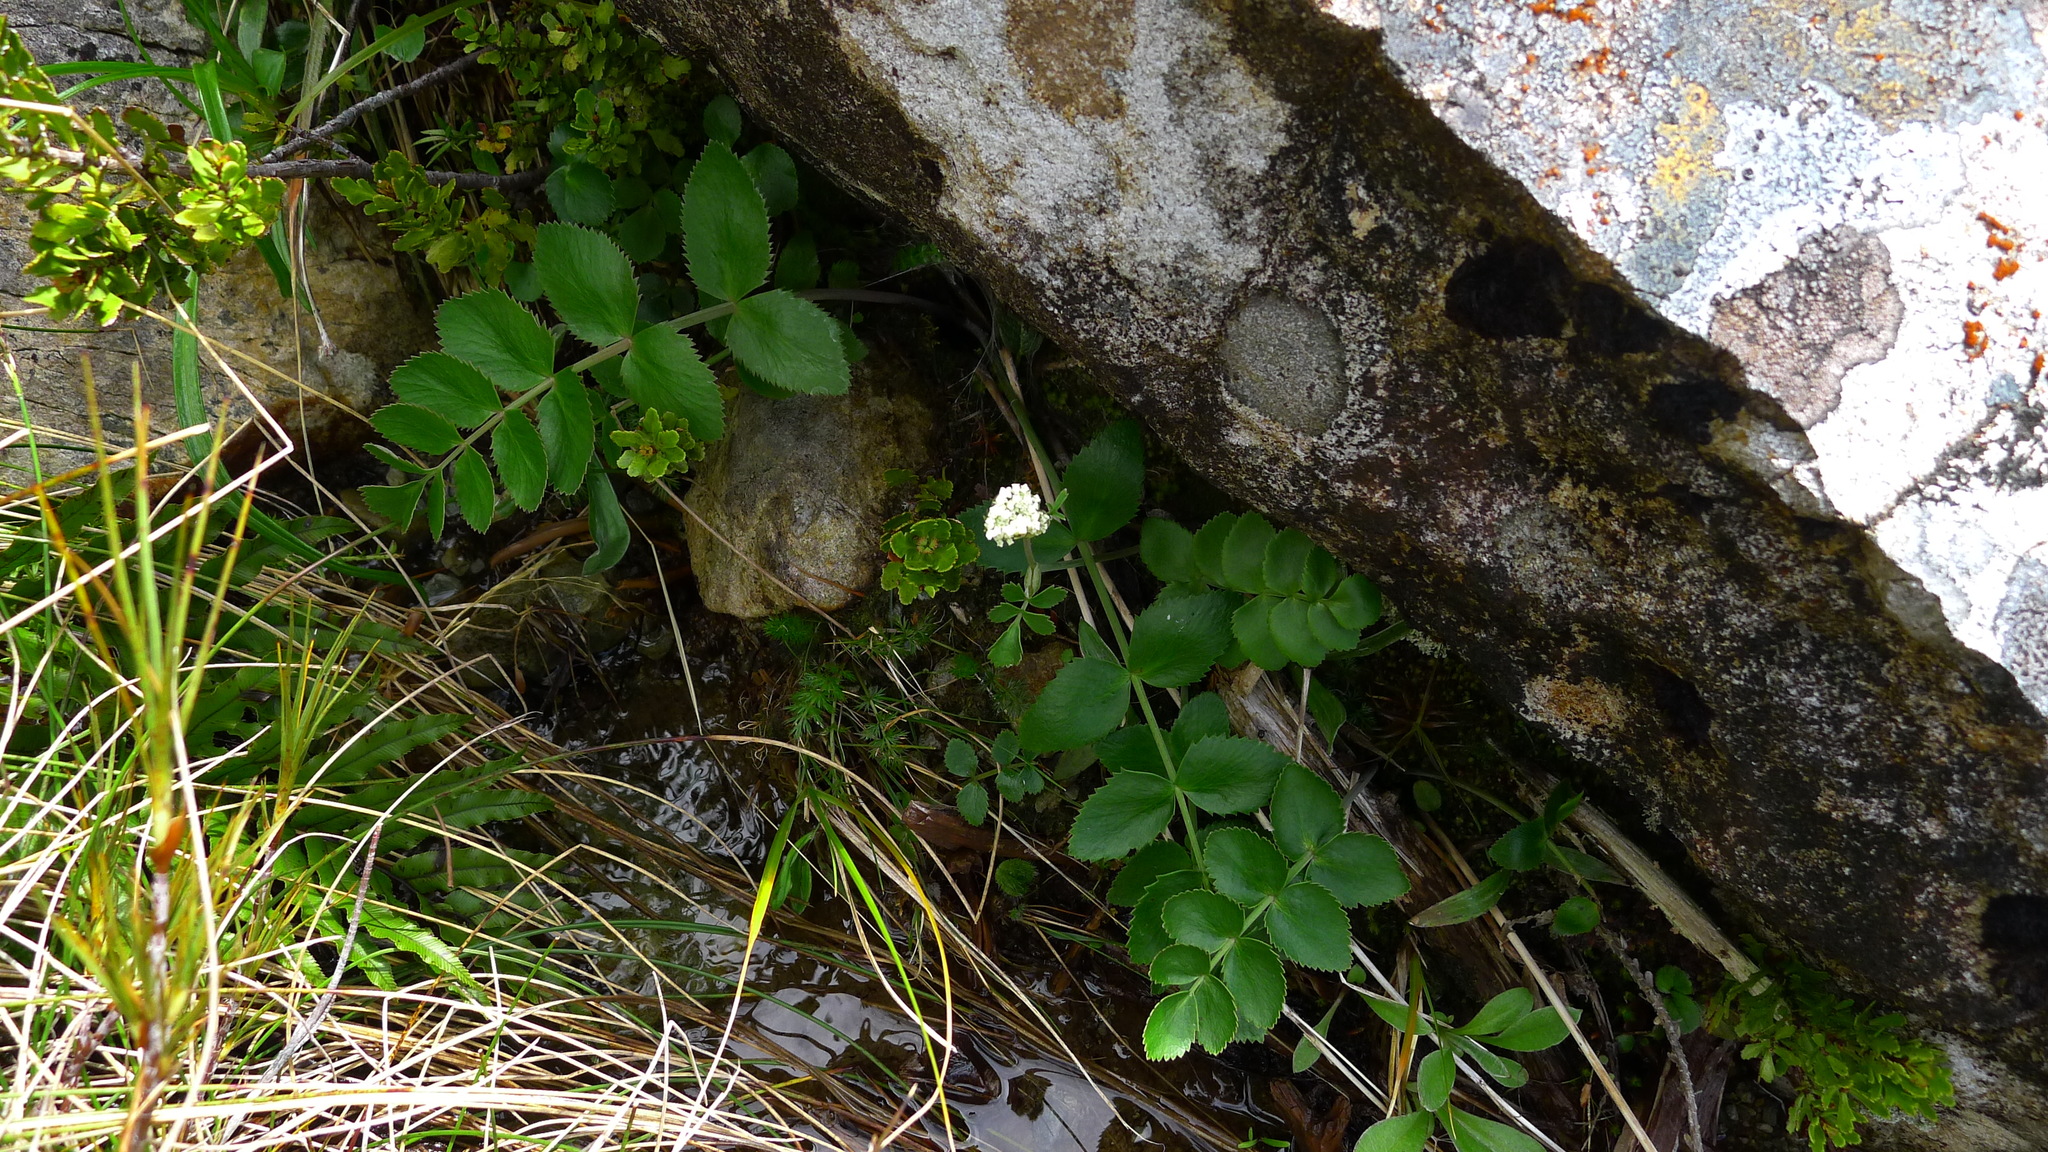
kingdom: Plantae
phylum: Tracheophyta
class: Magnoliopsida
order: Apiales
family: Apiaceae
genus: Gingidia
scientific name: Gingidia montana
